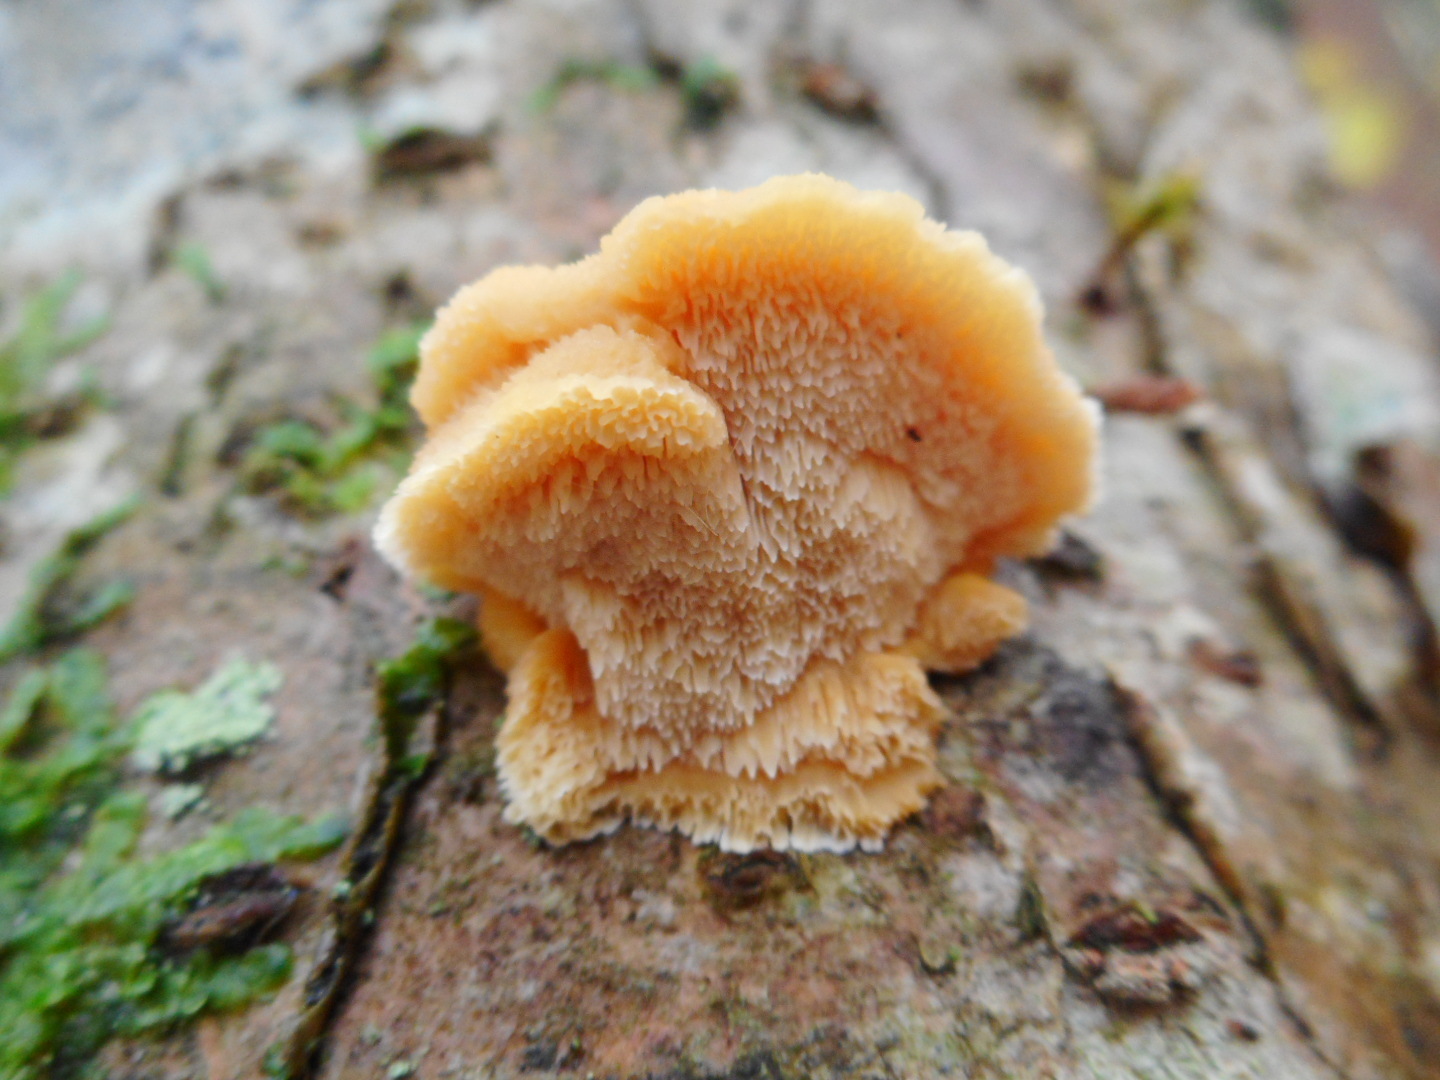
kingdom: Fungi
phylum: Basidiomycota
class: Agaricomycetes
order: Polyporales
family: Steccherinaceae
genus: Antrodiella
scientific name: Antrodiella serpula
